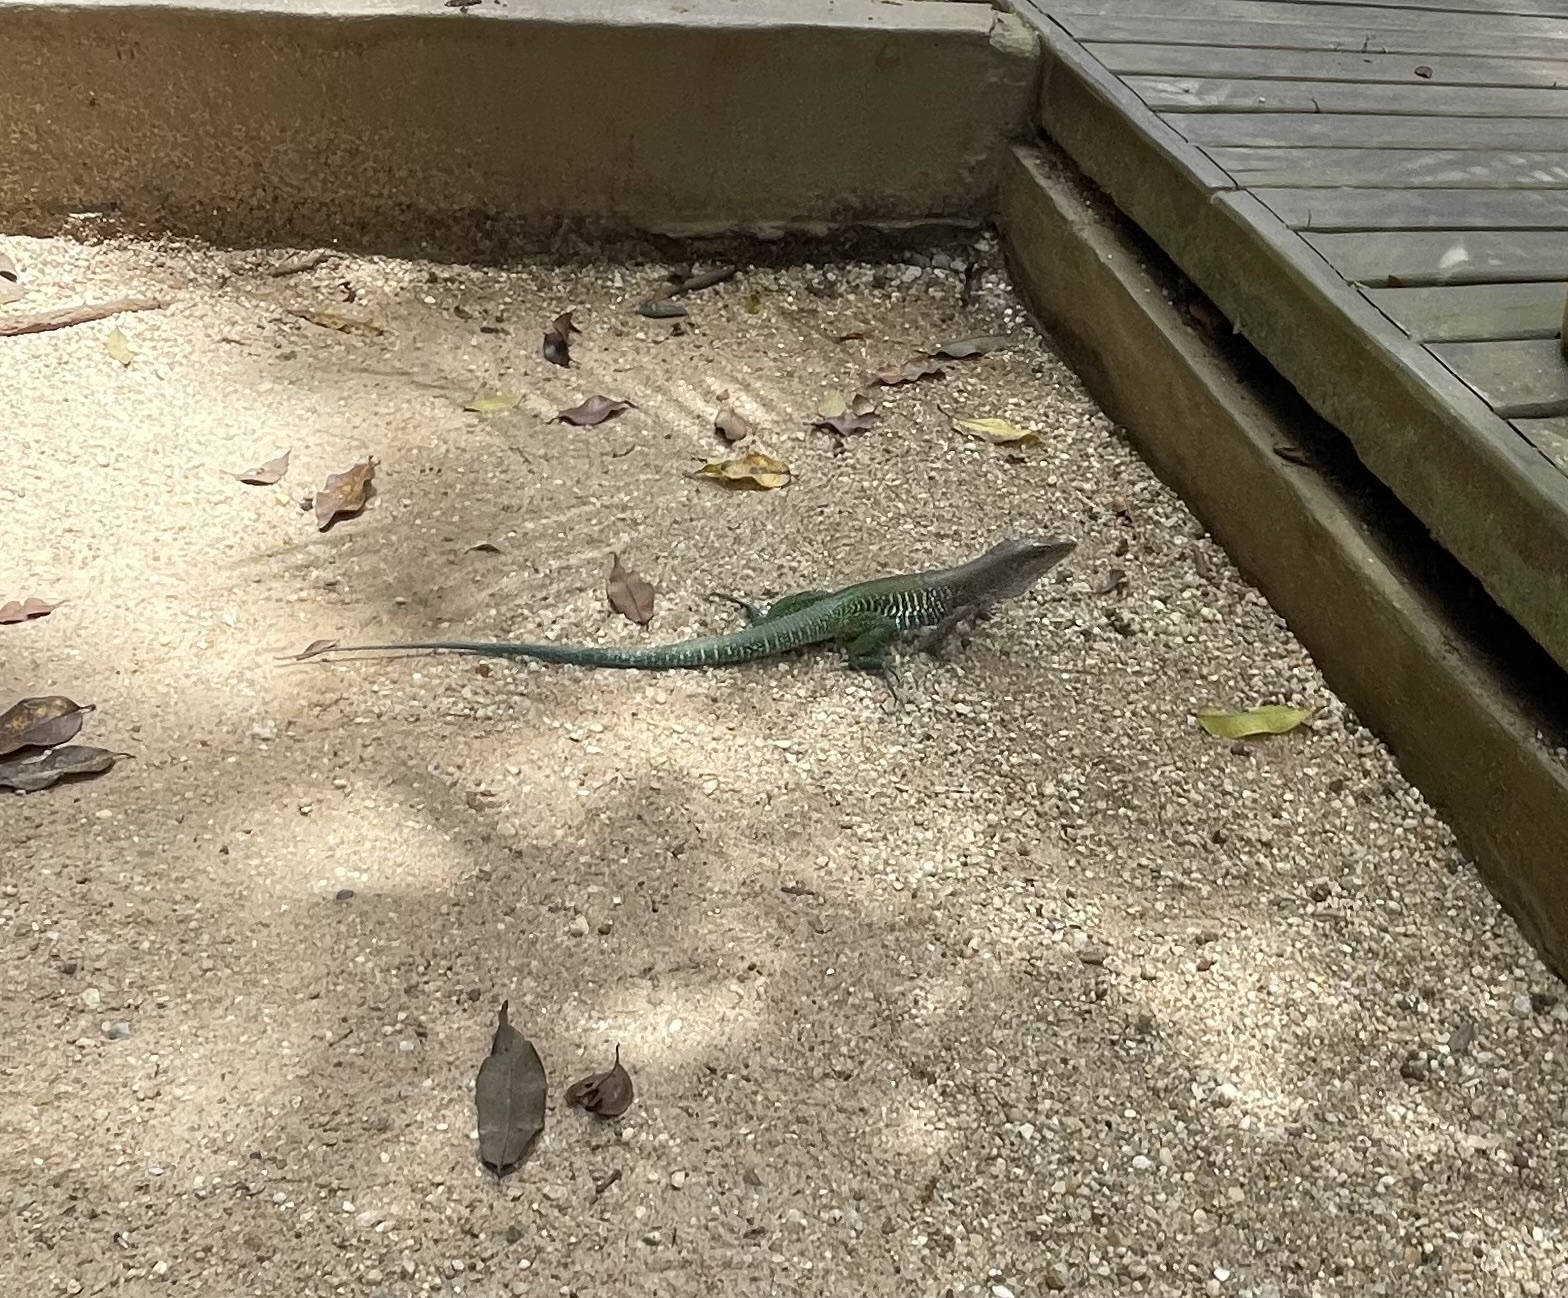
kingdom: Animalia
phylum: Chordata
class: Squamata
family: Teiidae
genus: Ameiva
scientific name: Ameiva ameiva
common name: Giant ameiva
